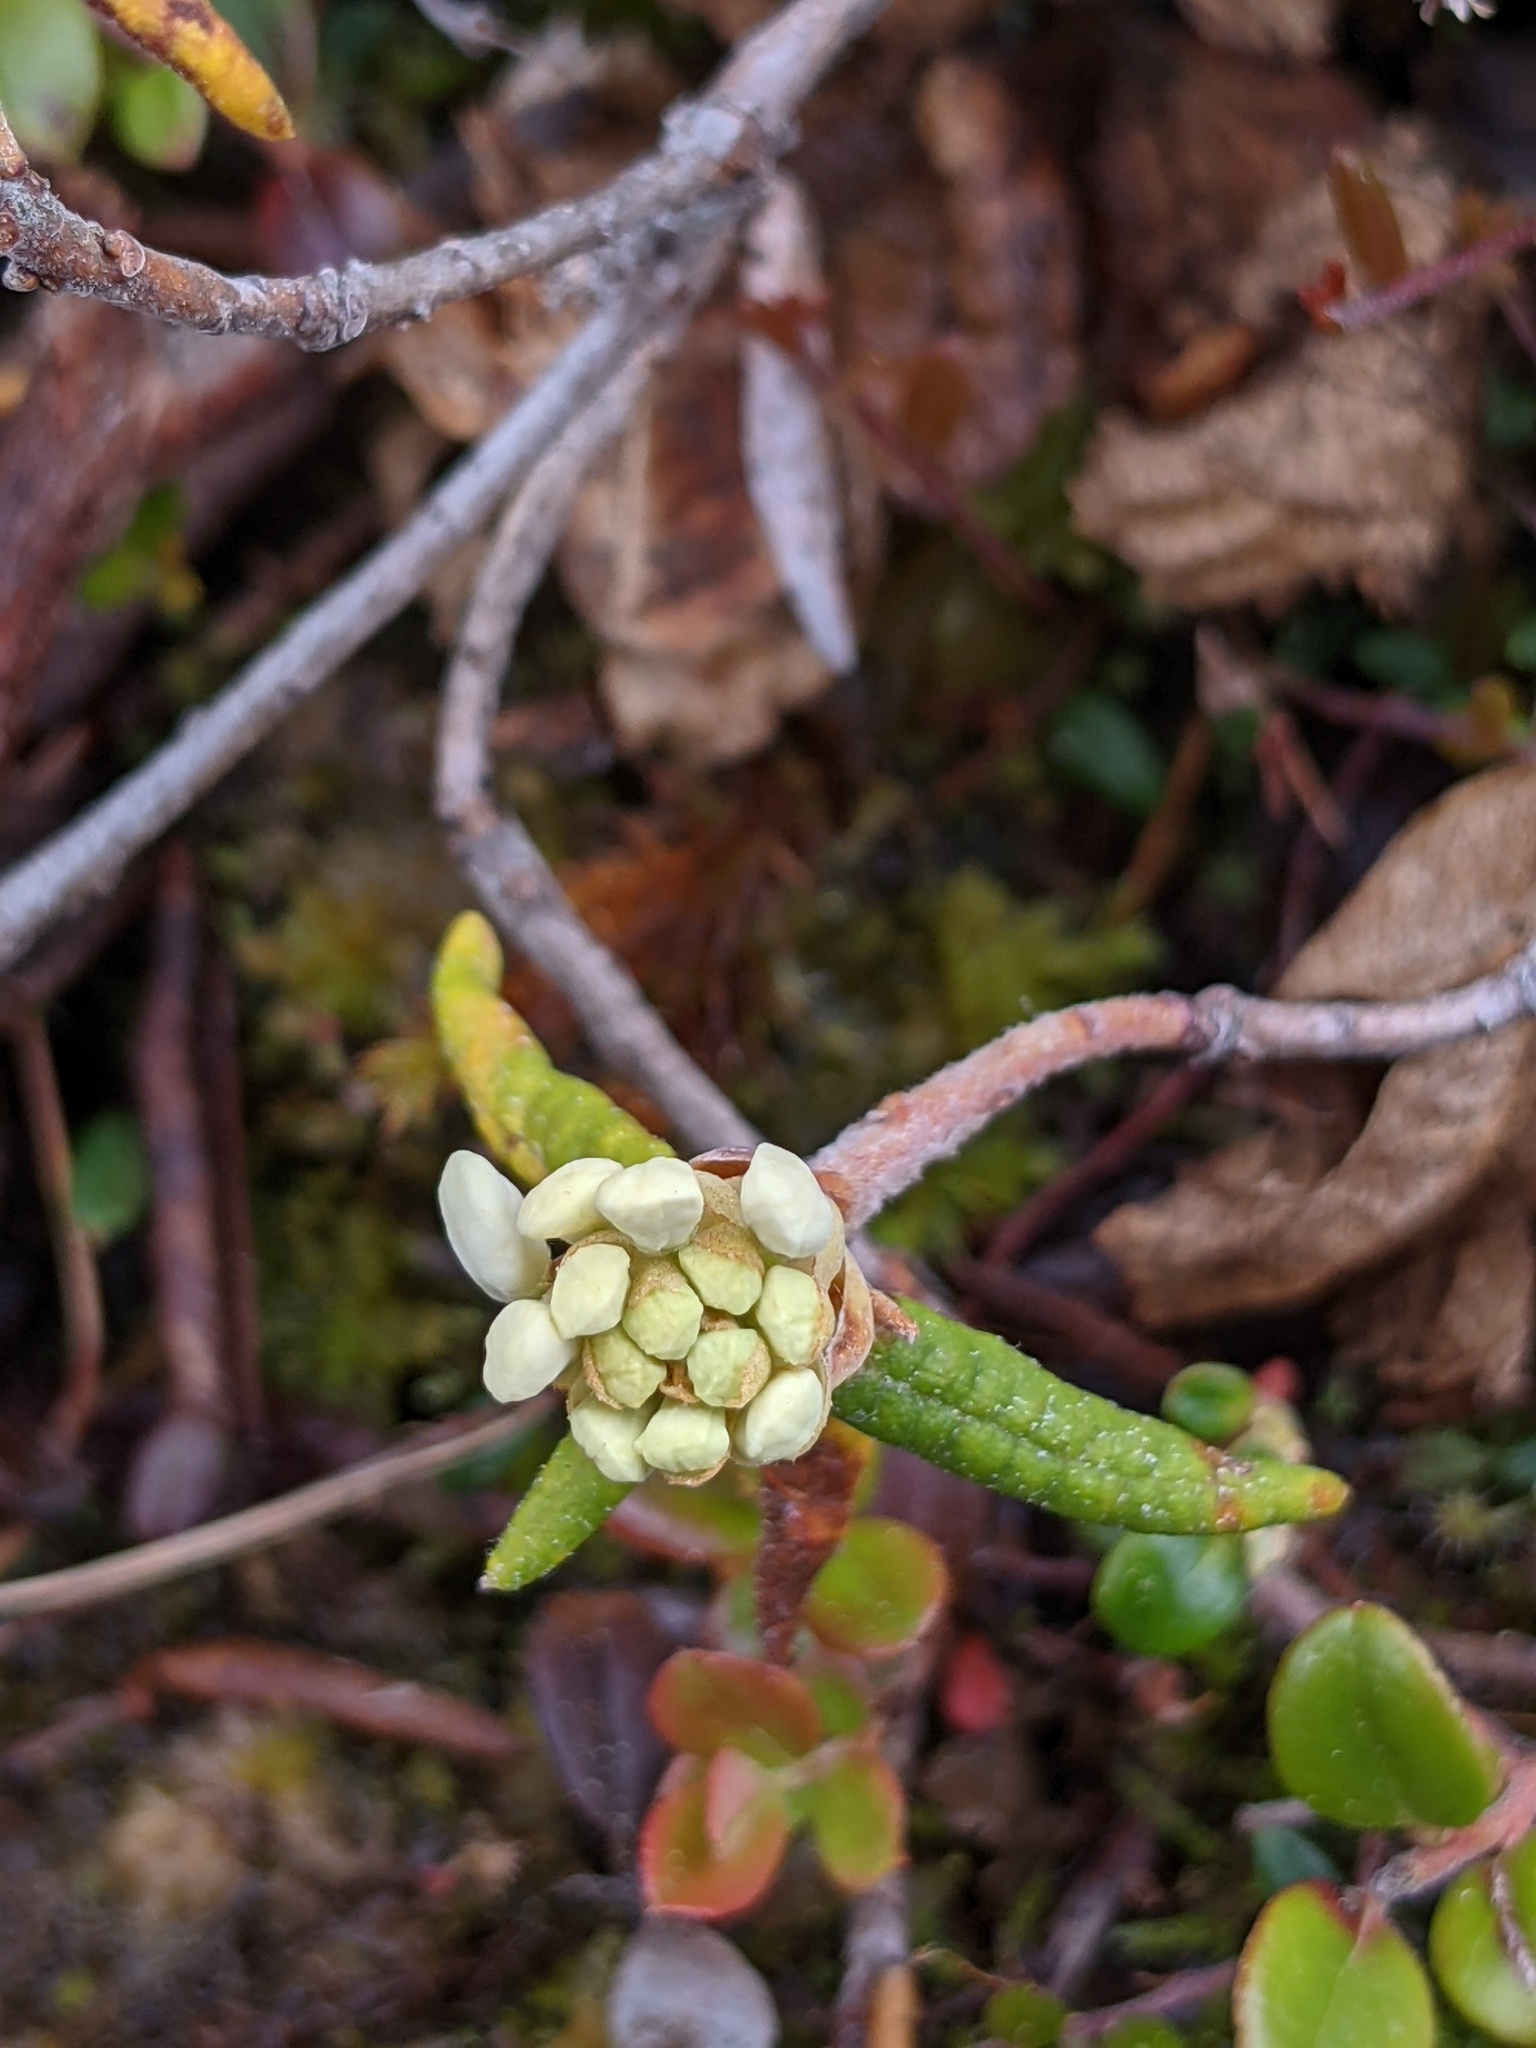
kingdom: Plantae
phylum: Tracheophyta
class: Magnoliopsida
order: Ericales
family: Ericaceae
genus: Rhododendron
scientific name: Rhododendron groenlandicum
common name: Bog labrador tea
